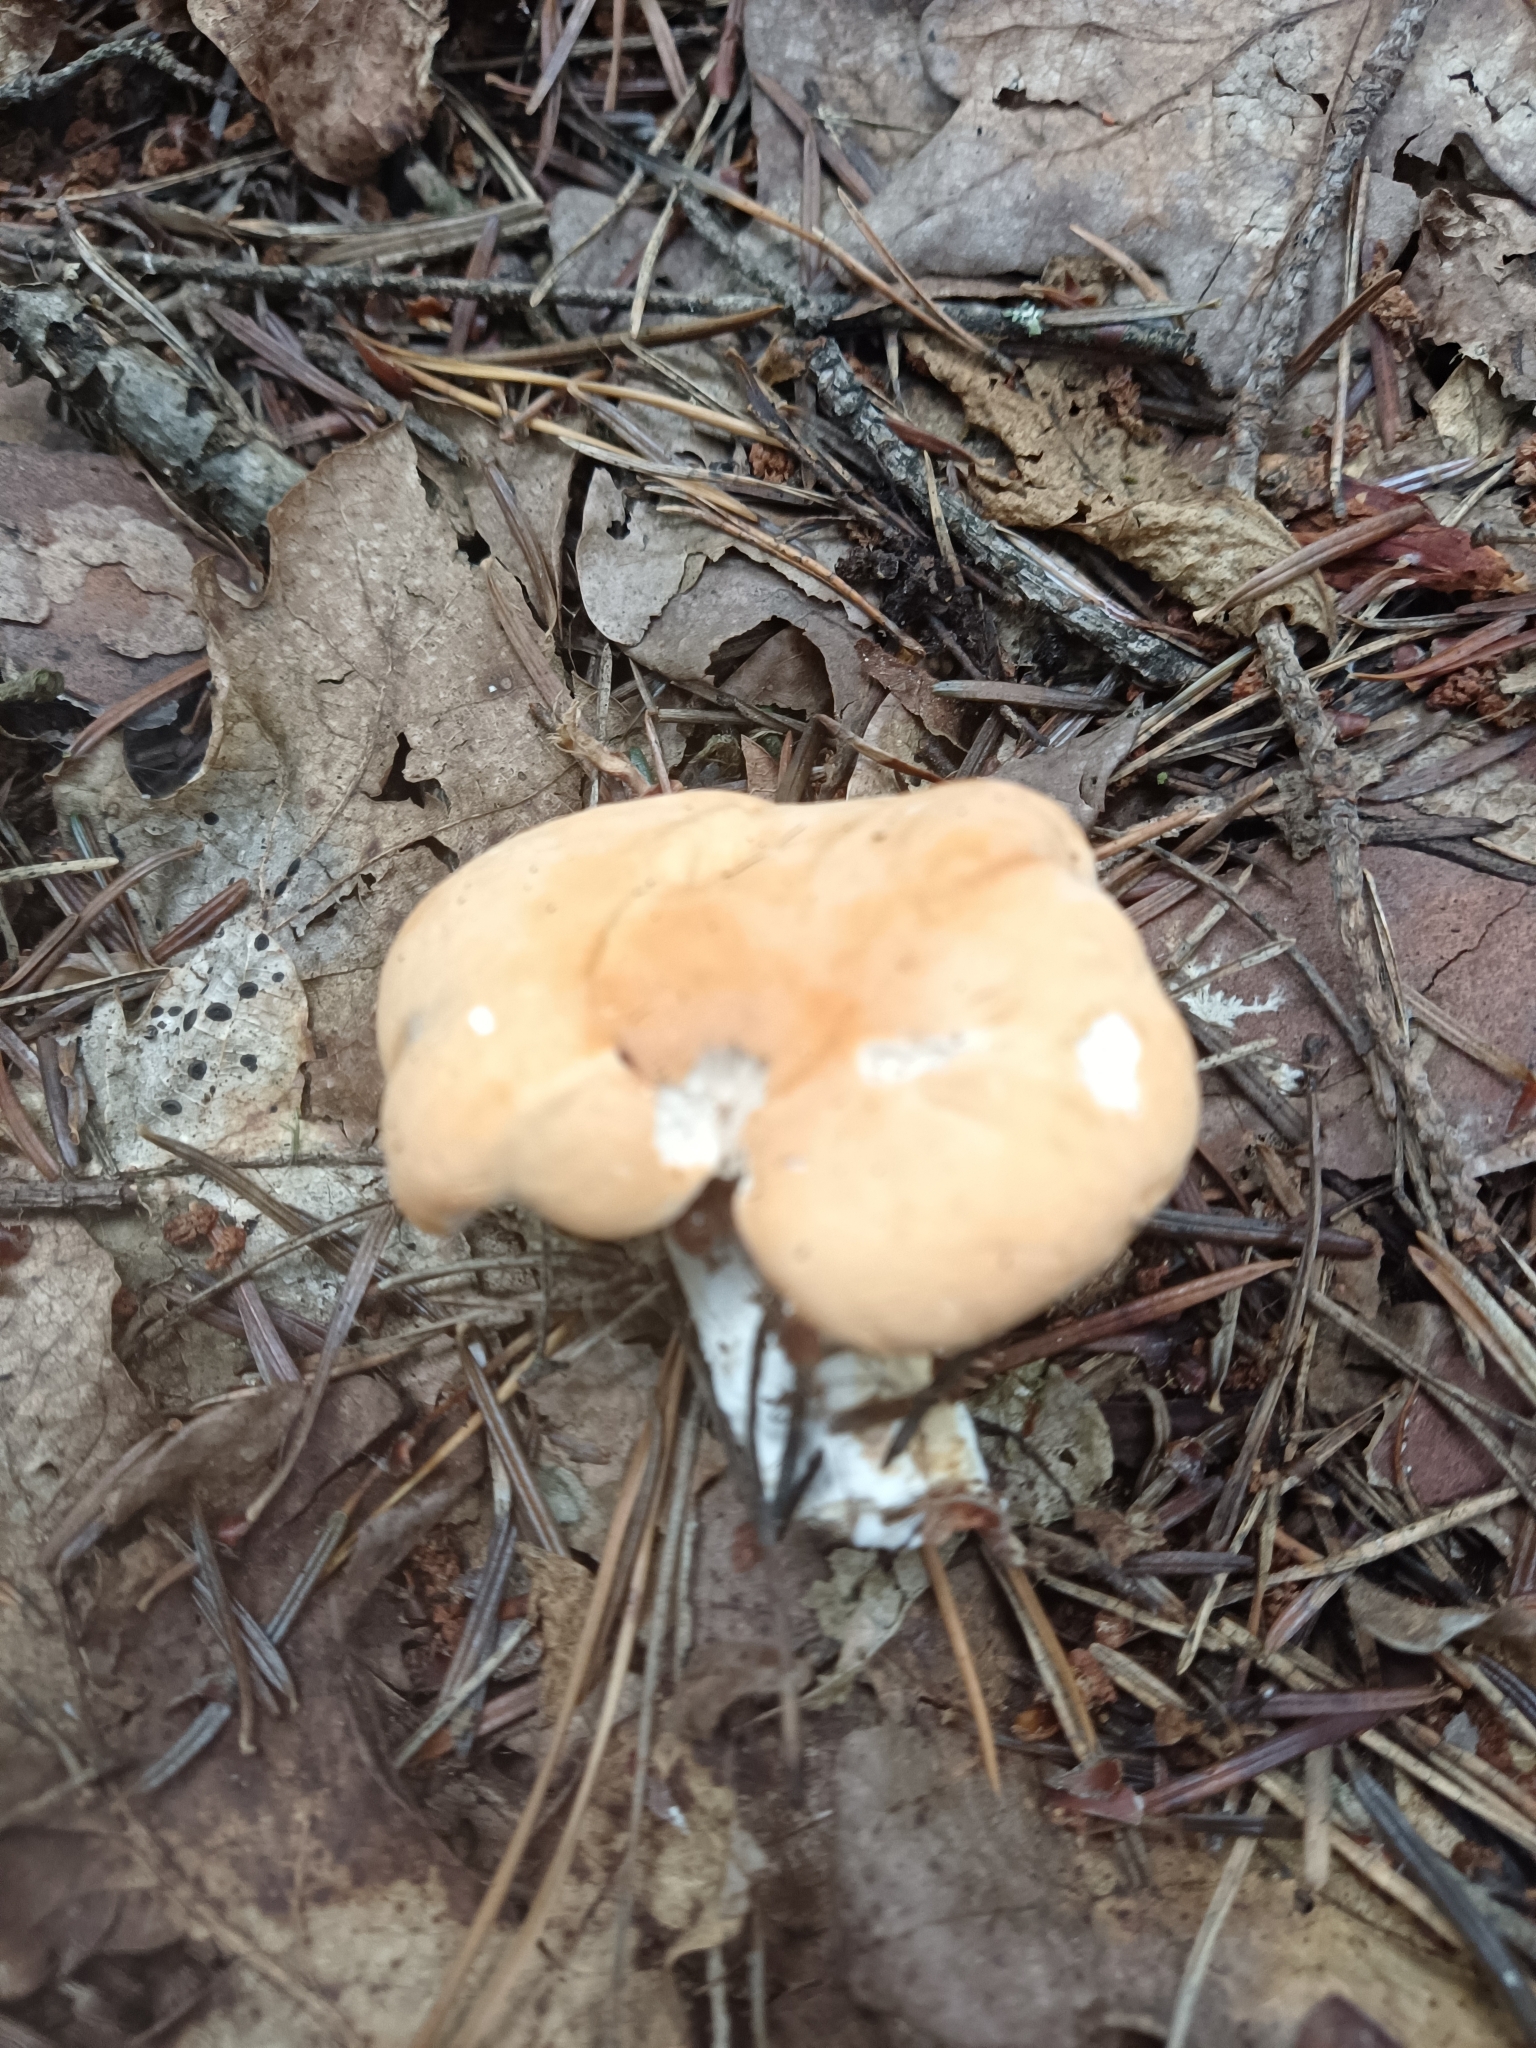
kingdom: Fungi
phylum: Basidiomycota
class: Agaricomycetes
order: Cantharellales
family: Hydnaceae
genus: Hydnum
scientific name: Hydnum repandum
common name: Wood hedgehog
